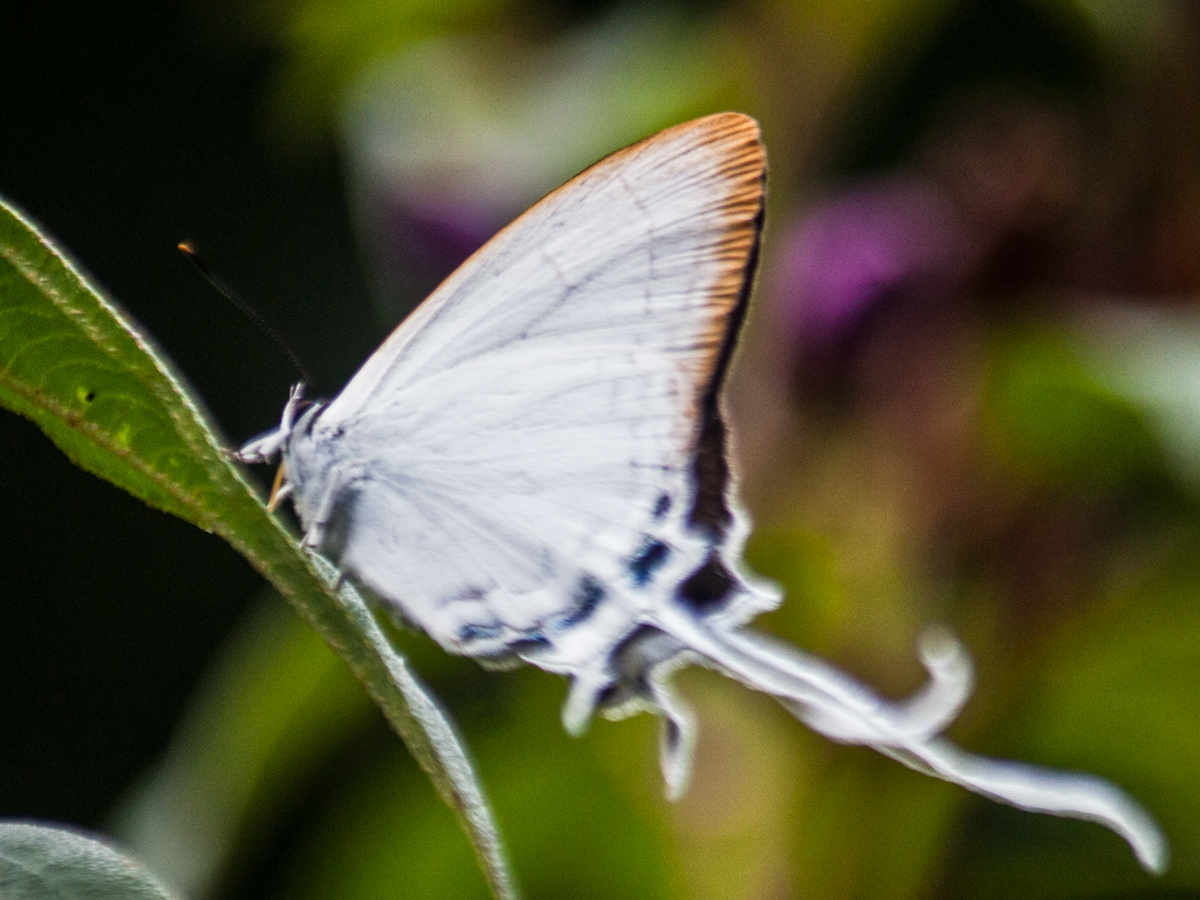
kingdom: Animalia
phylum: Arthropoda
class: Insecta
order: Lepidoptera
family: Lycaenidae
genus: Cheritra
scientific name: Cheritra freja
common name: Common imperial
